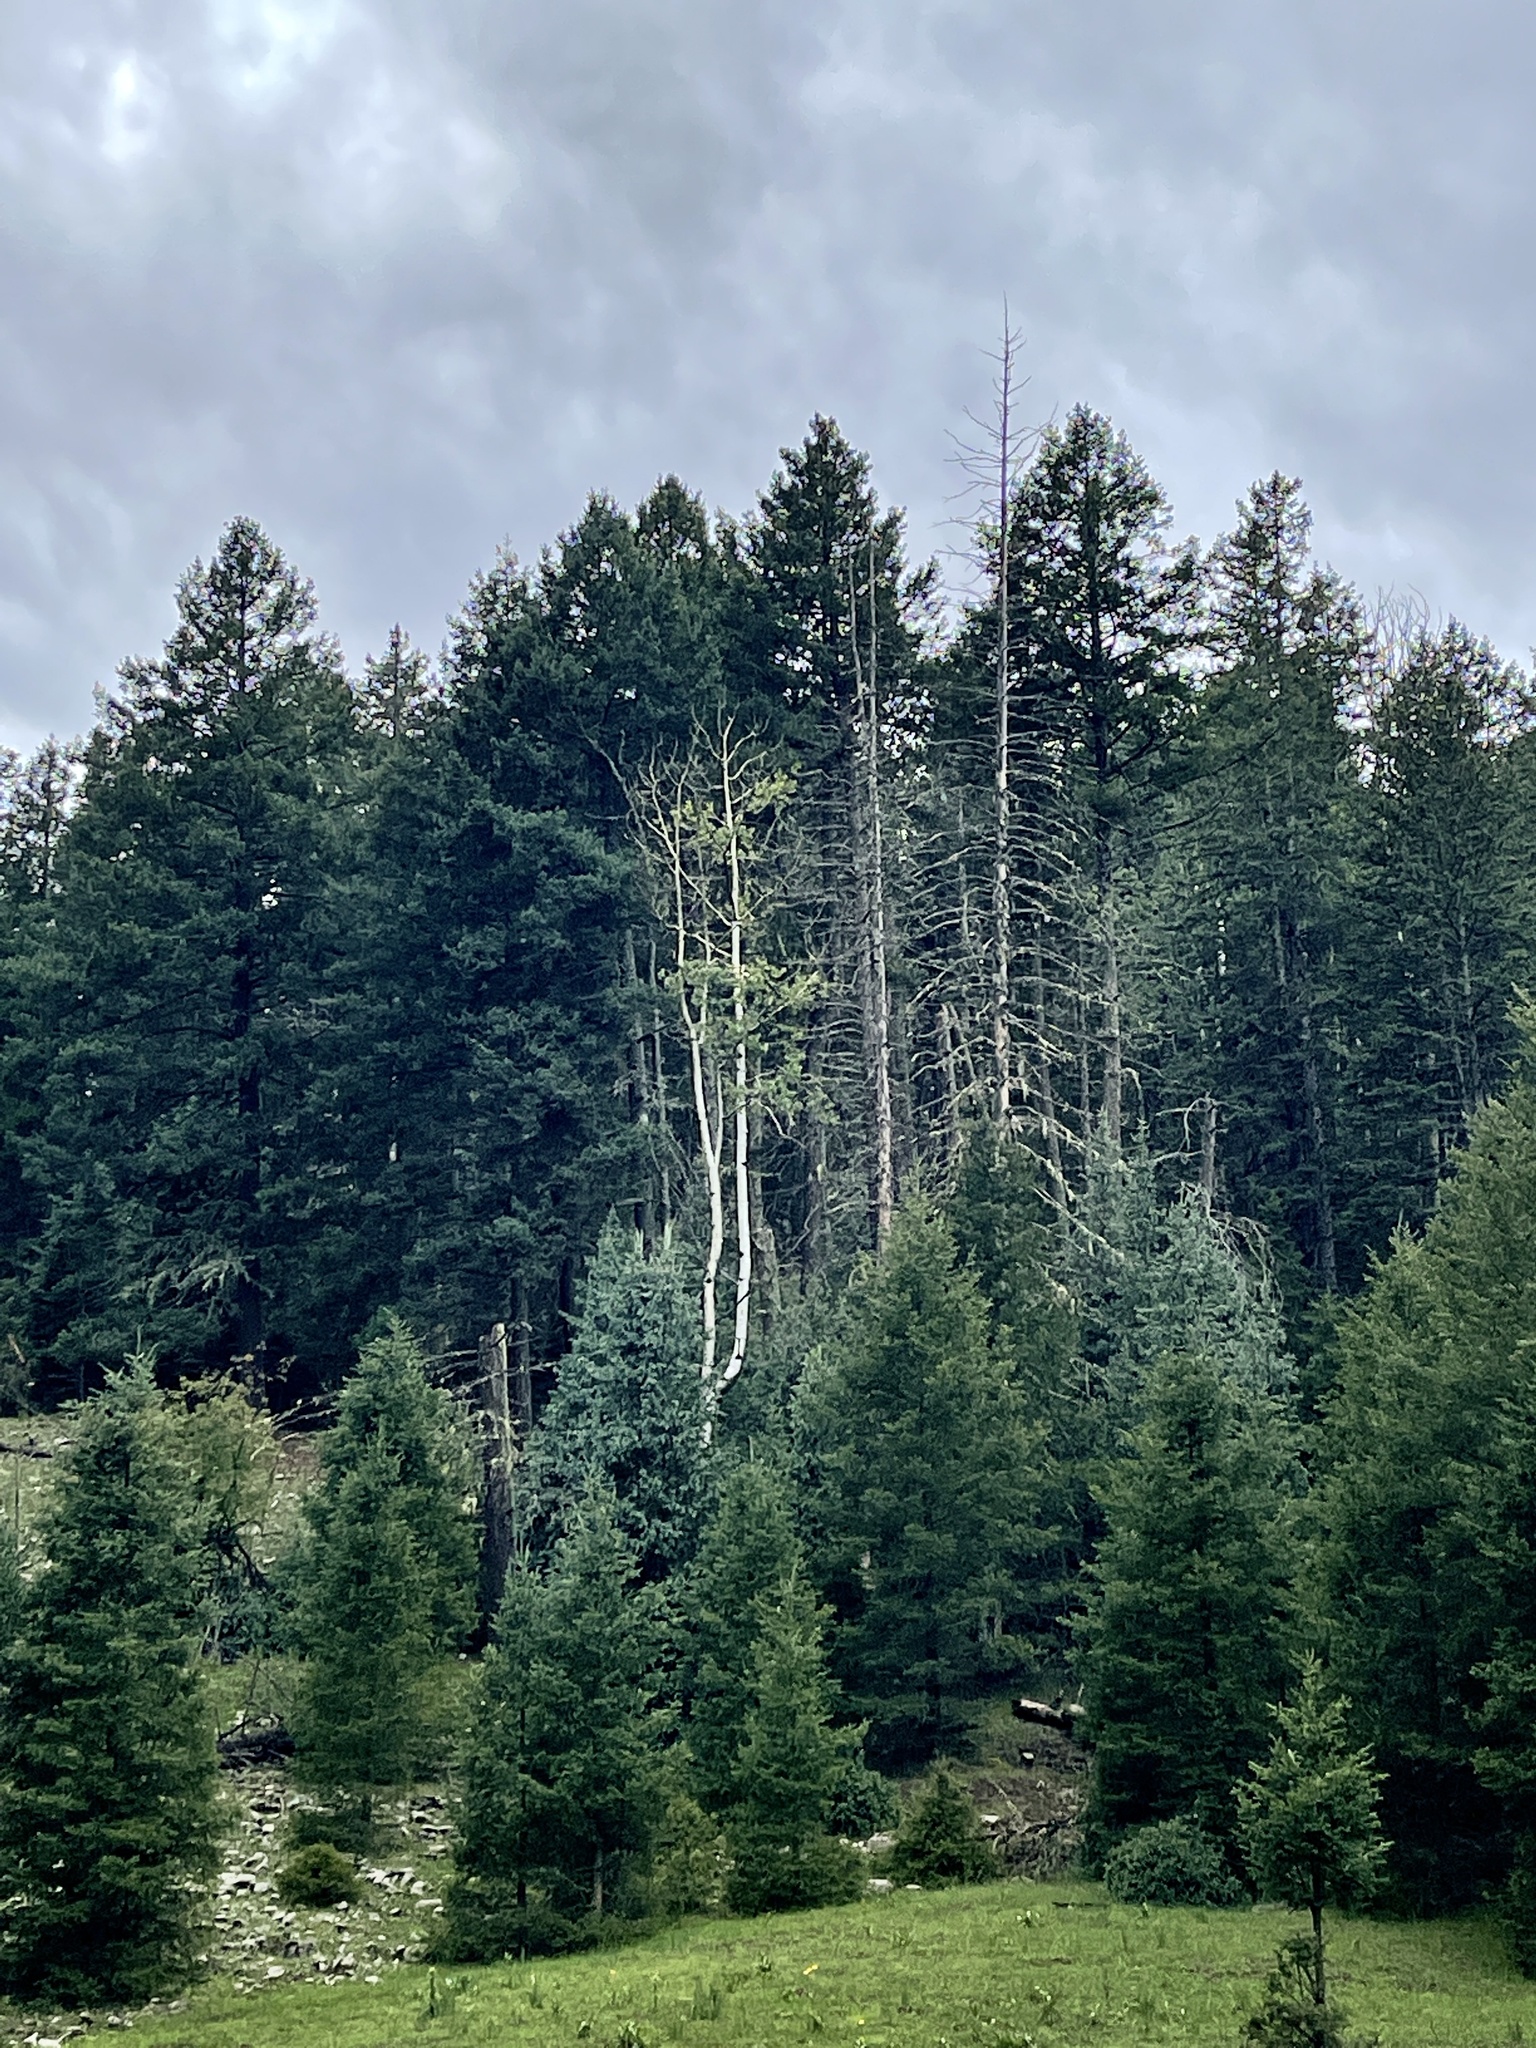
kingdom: Plantae
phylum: Tracheophyta
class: Magnoliopsida
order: Malpighiales
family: Salicaceae
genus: Populus
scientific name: Populus tremuloides
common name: Quaking aspen
